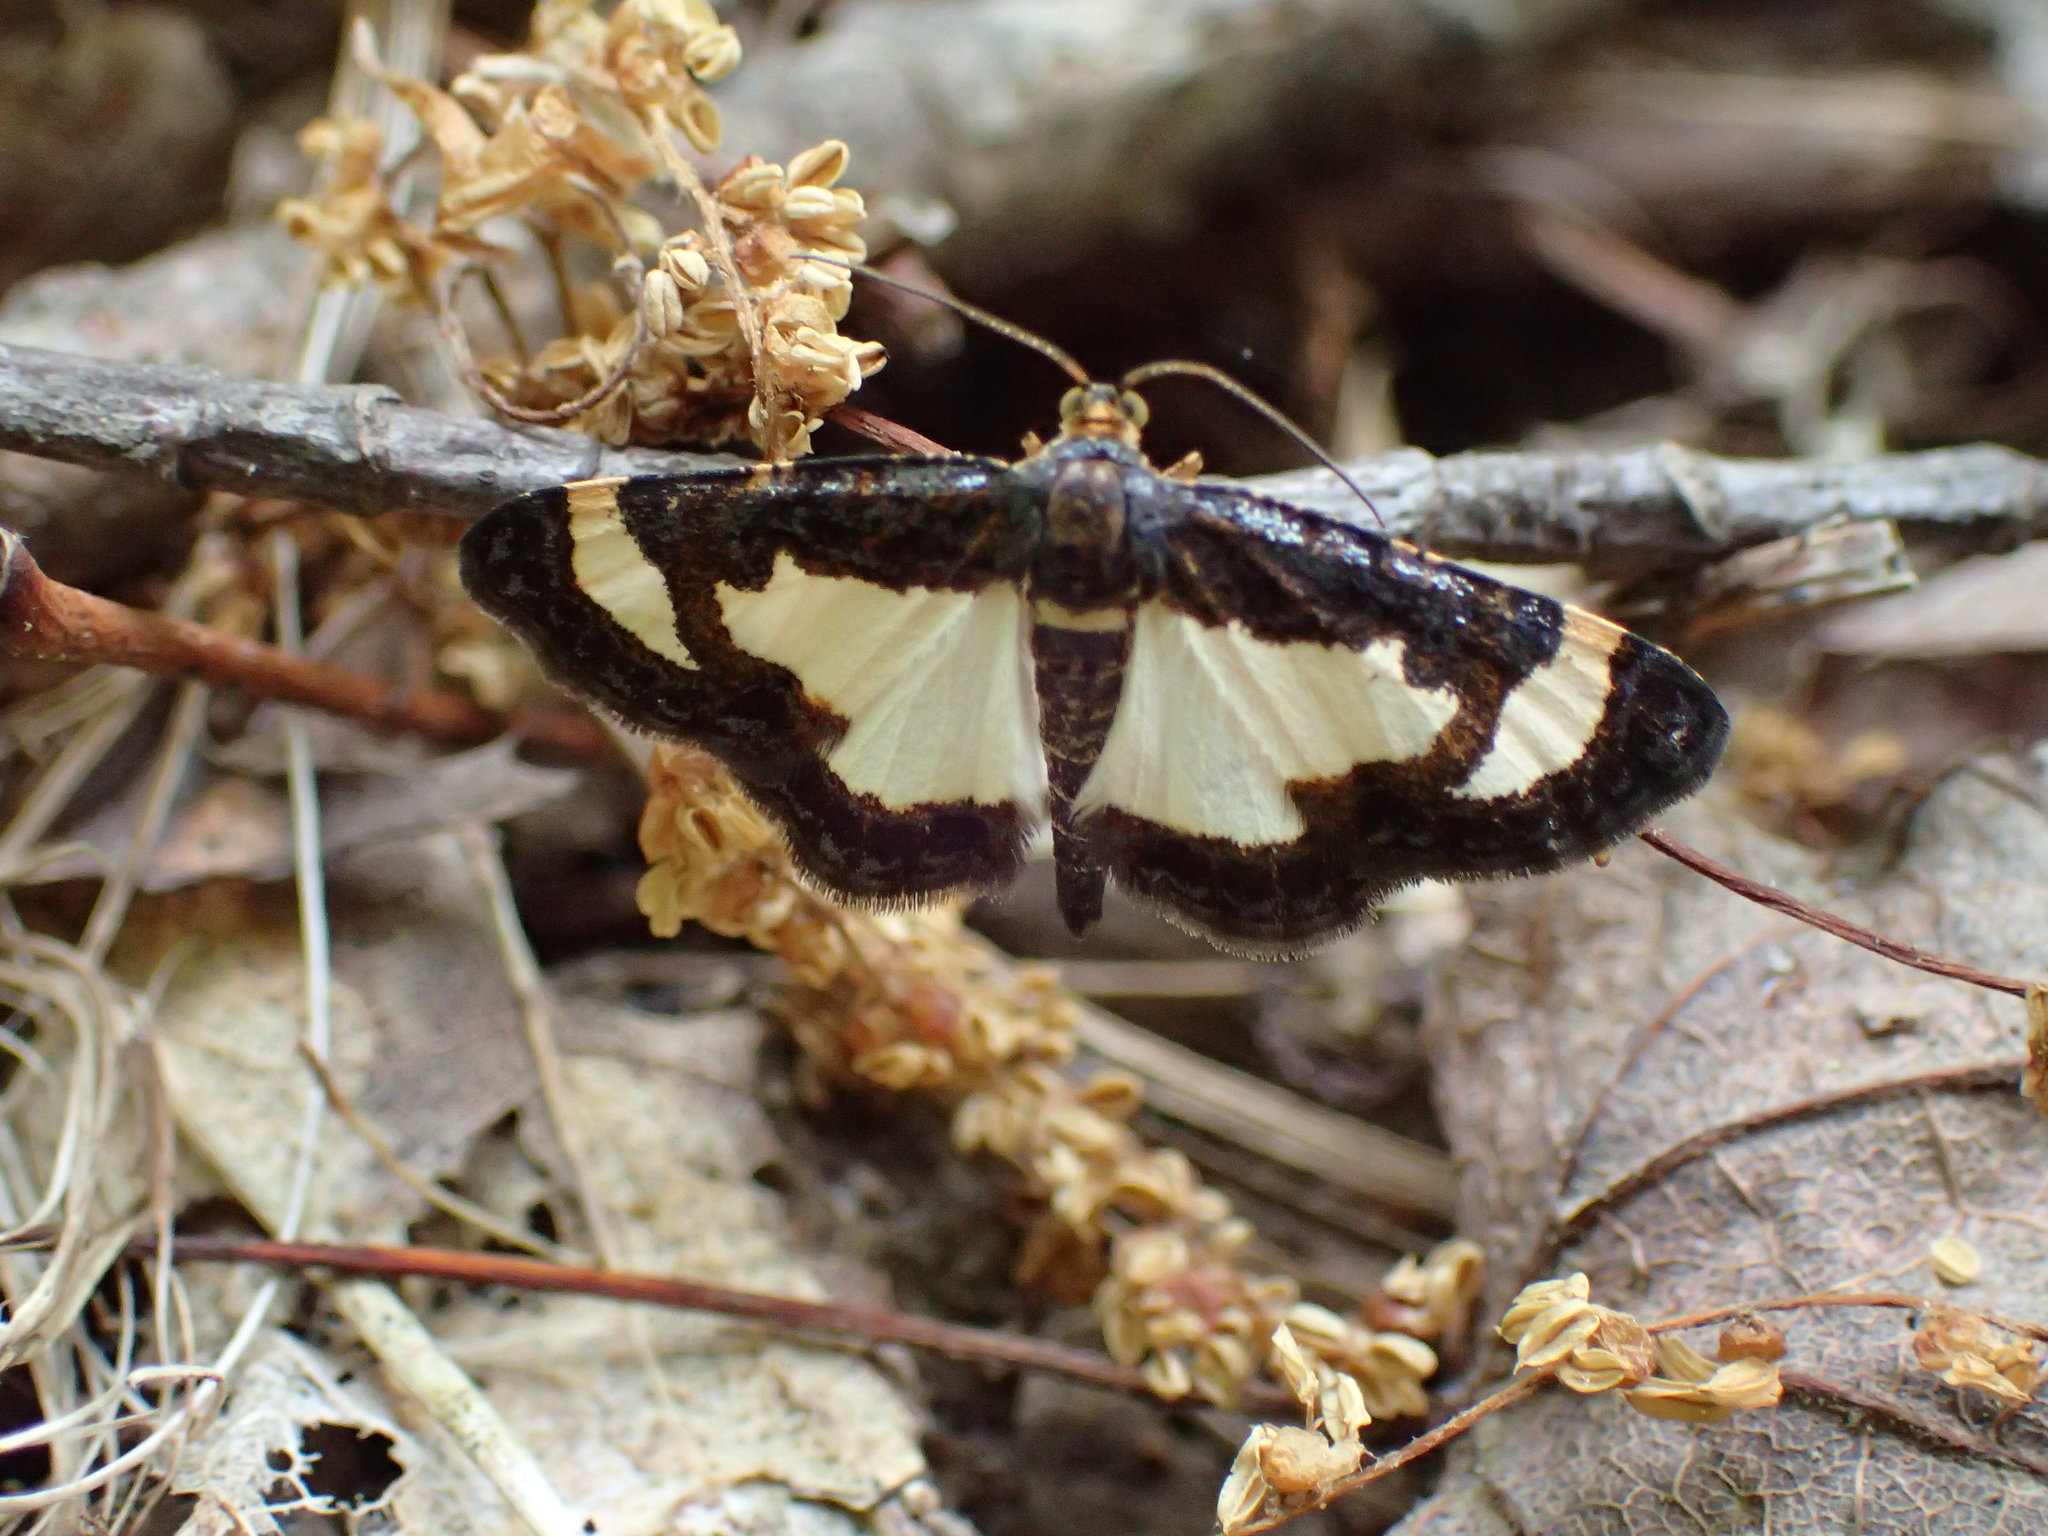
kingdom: Animalia
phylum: Arthropoda
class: Insecta
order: Lepidoptera
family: Geometridae
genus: Heliomata
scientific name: Heliomata cycladata
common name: Common spring moth
